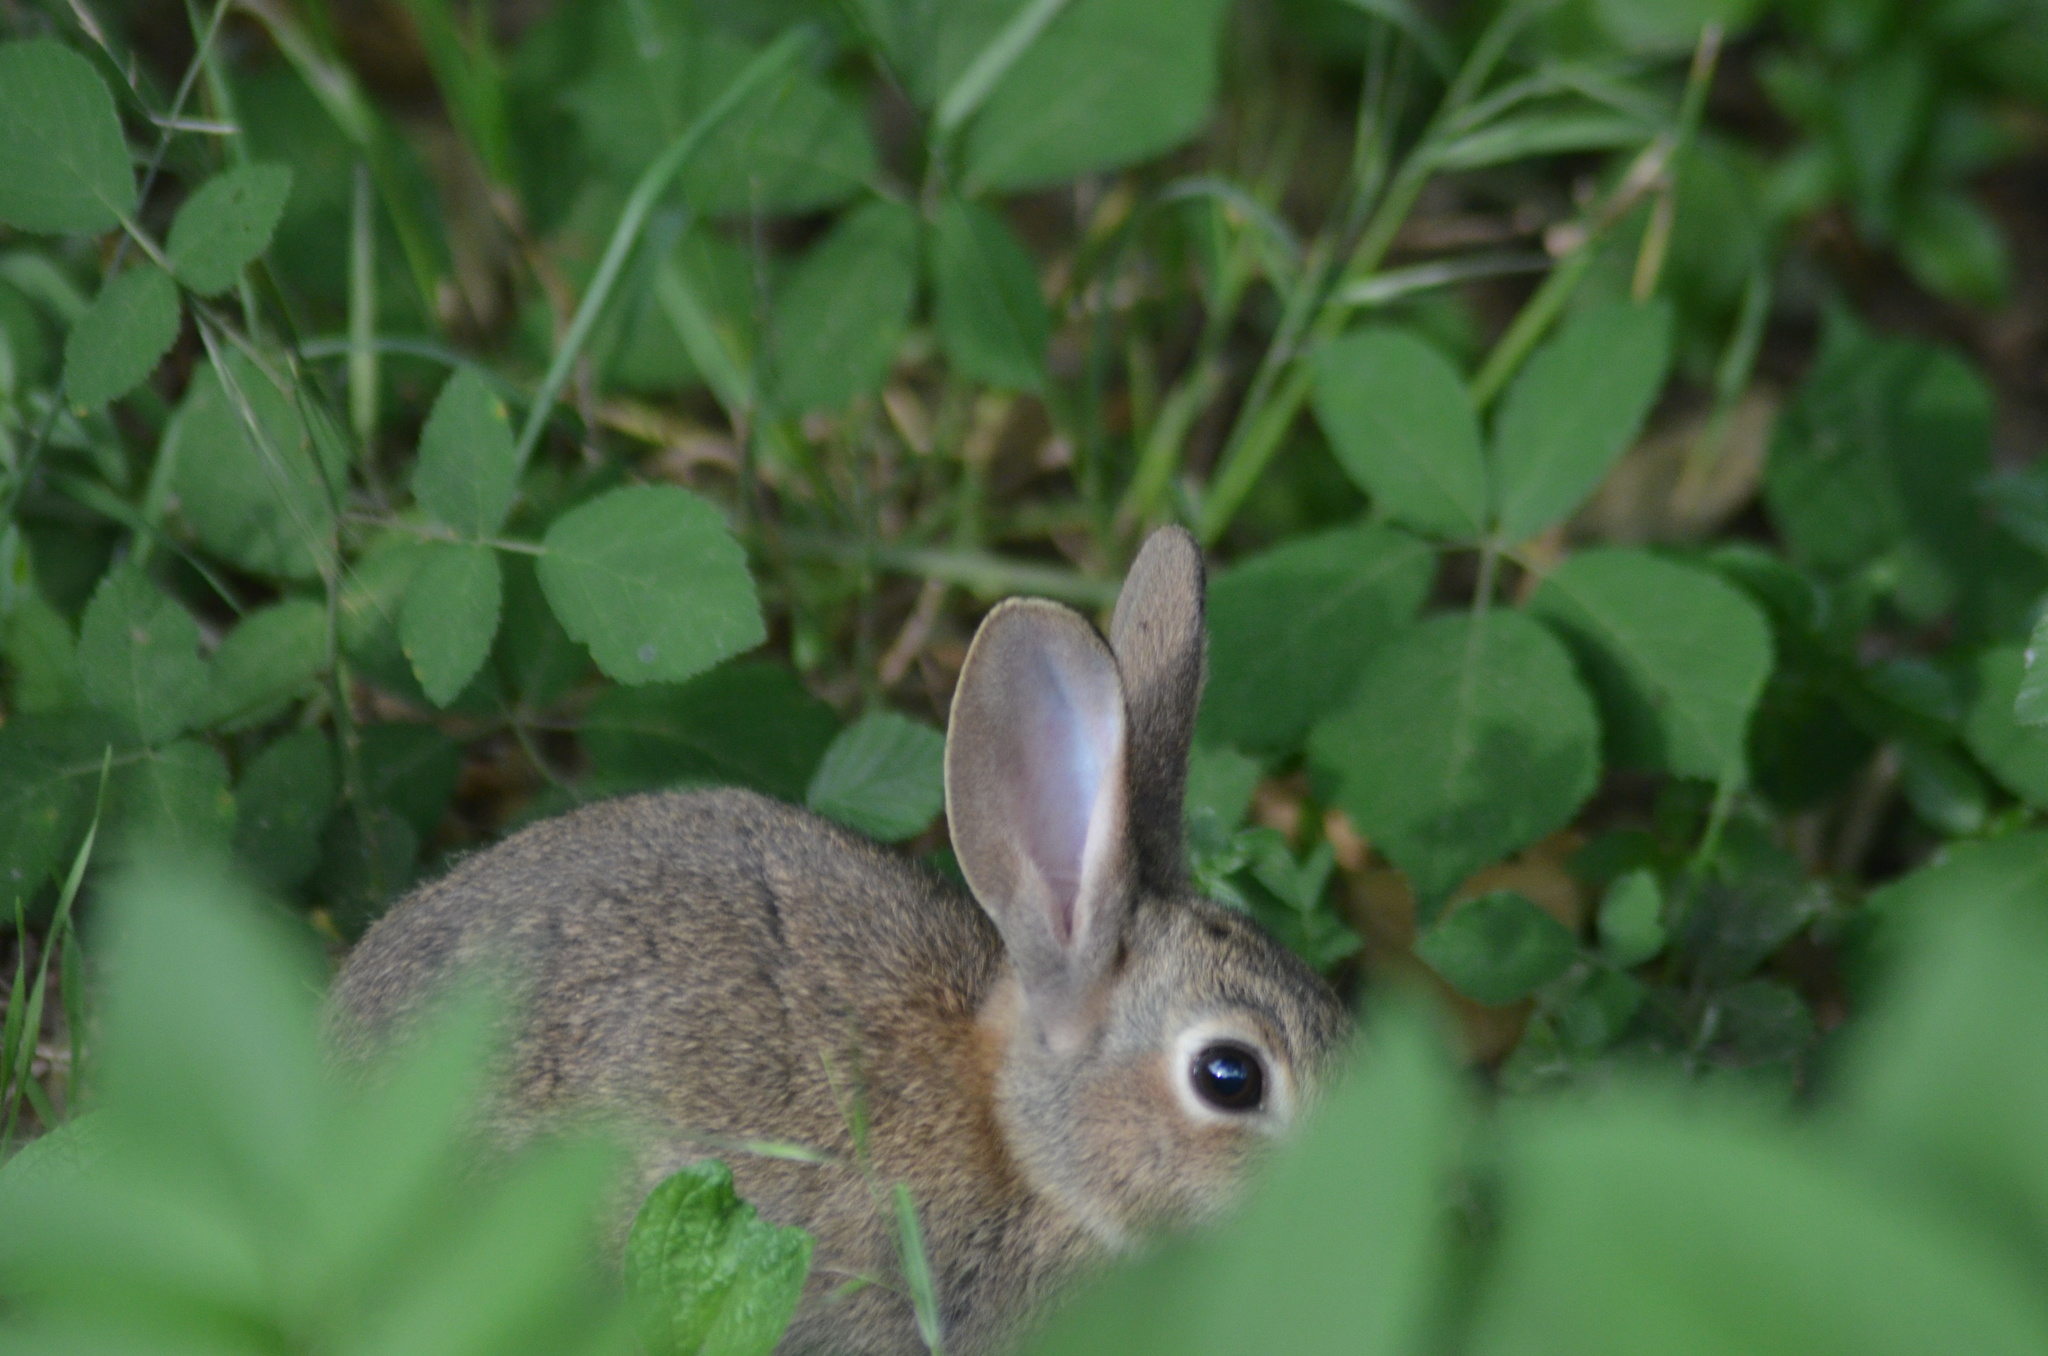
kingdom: Animalia
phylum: Chordata
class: Mammalia
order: Lagomorpha
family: Leporidae
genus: Oryctolagus
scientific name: Oryctolagus cuniculus
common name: European rabbit
